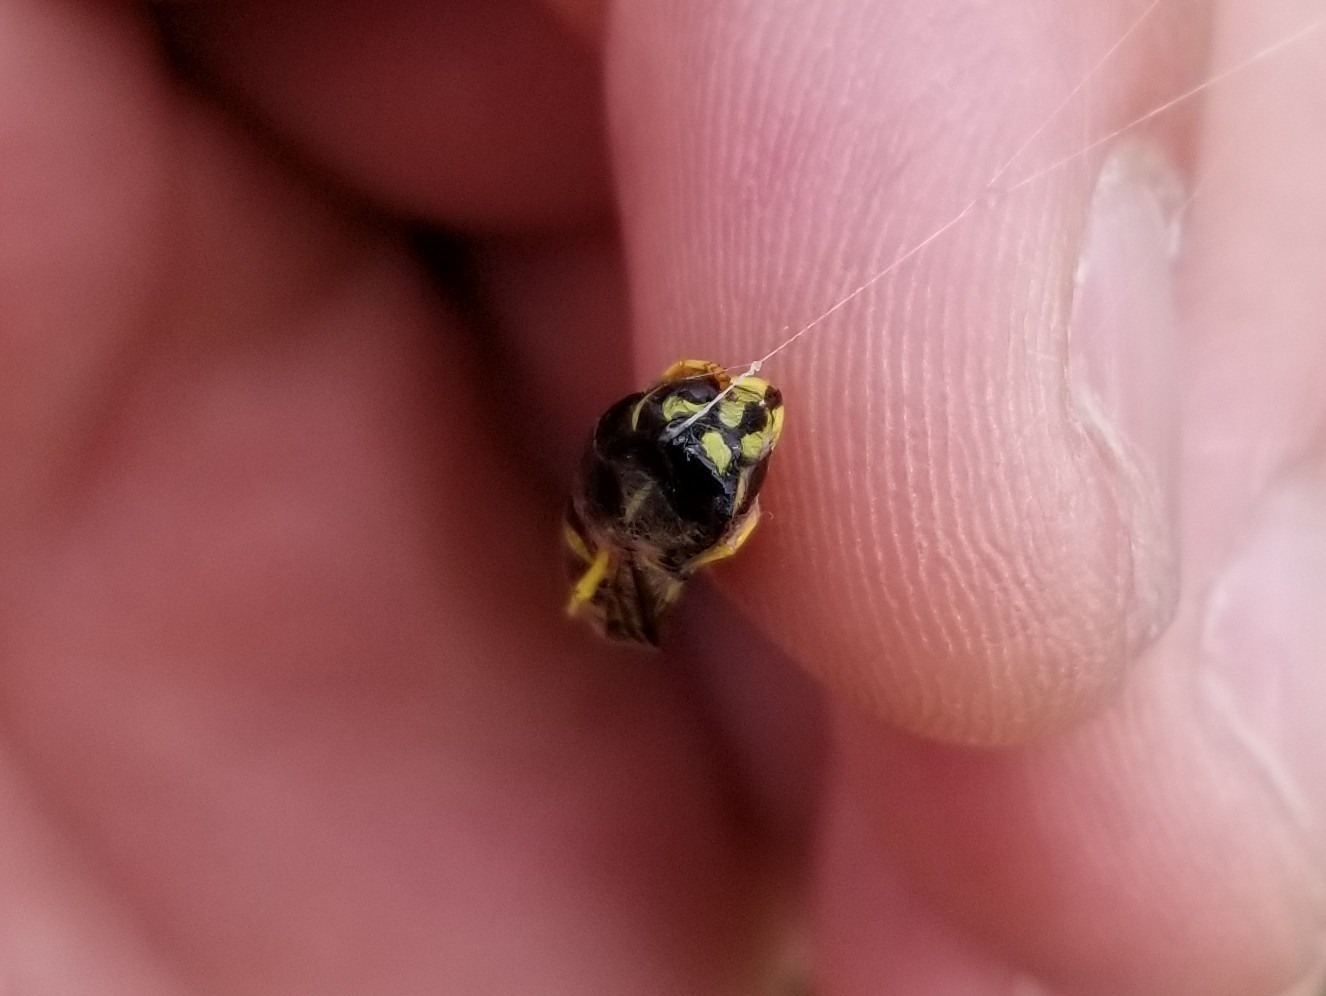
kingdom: Animalia
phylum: Arthropoda
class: Insecta
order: Hymenoptera
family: Vespidae
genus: Vespula
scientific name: Vespula alascensis
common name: Alaska yellowjacket
